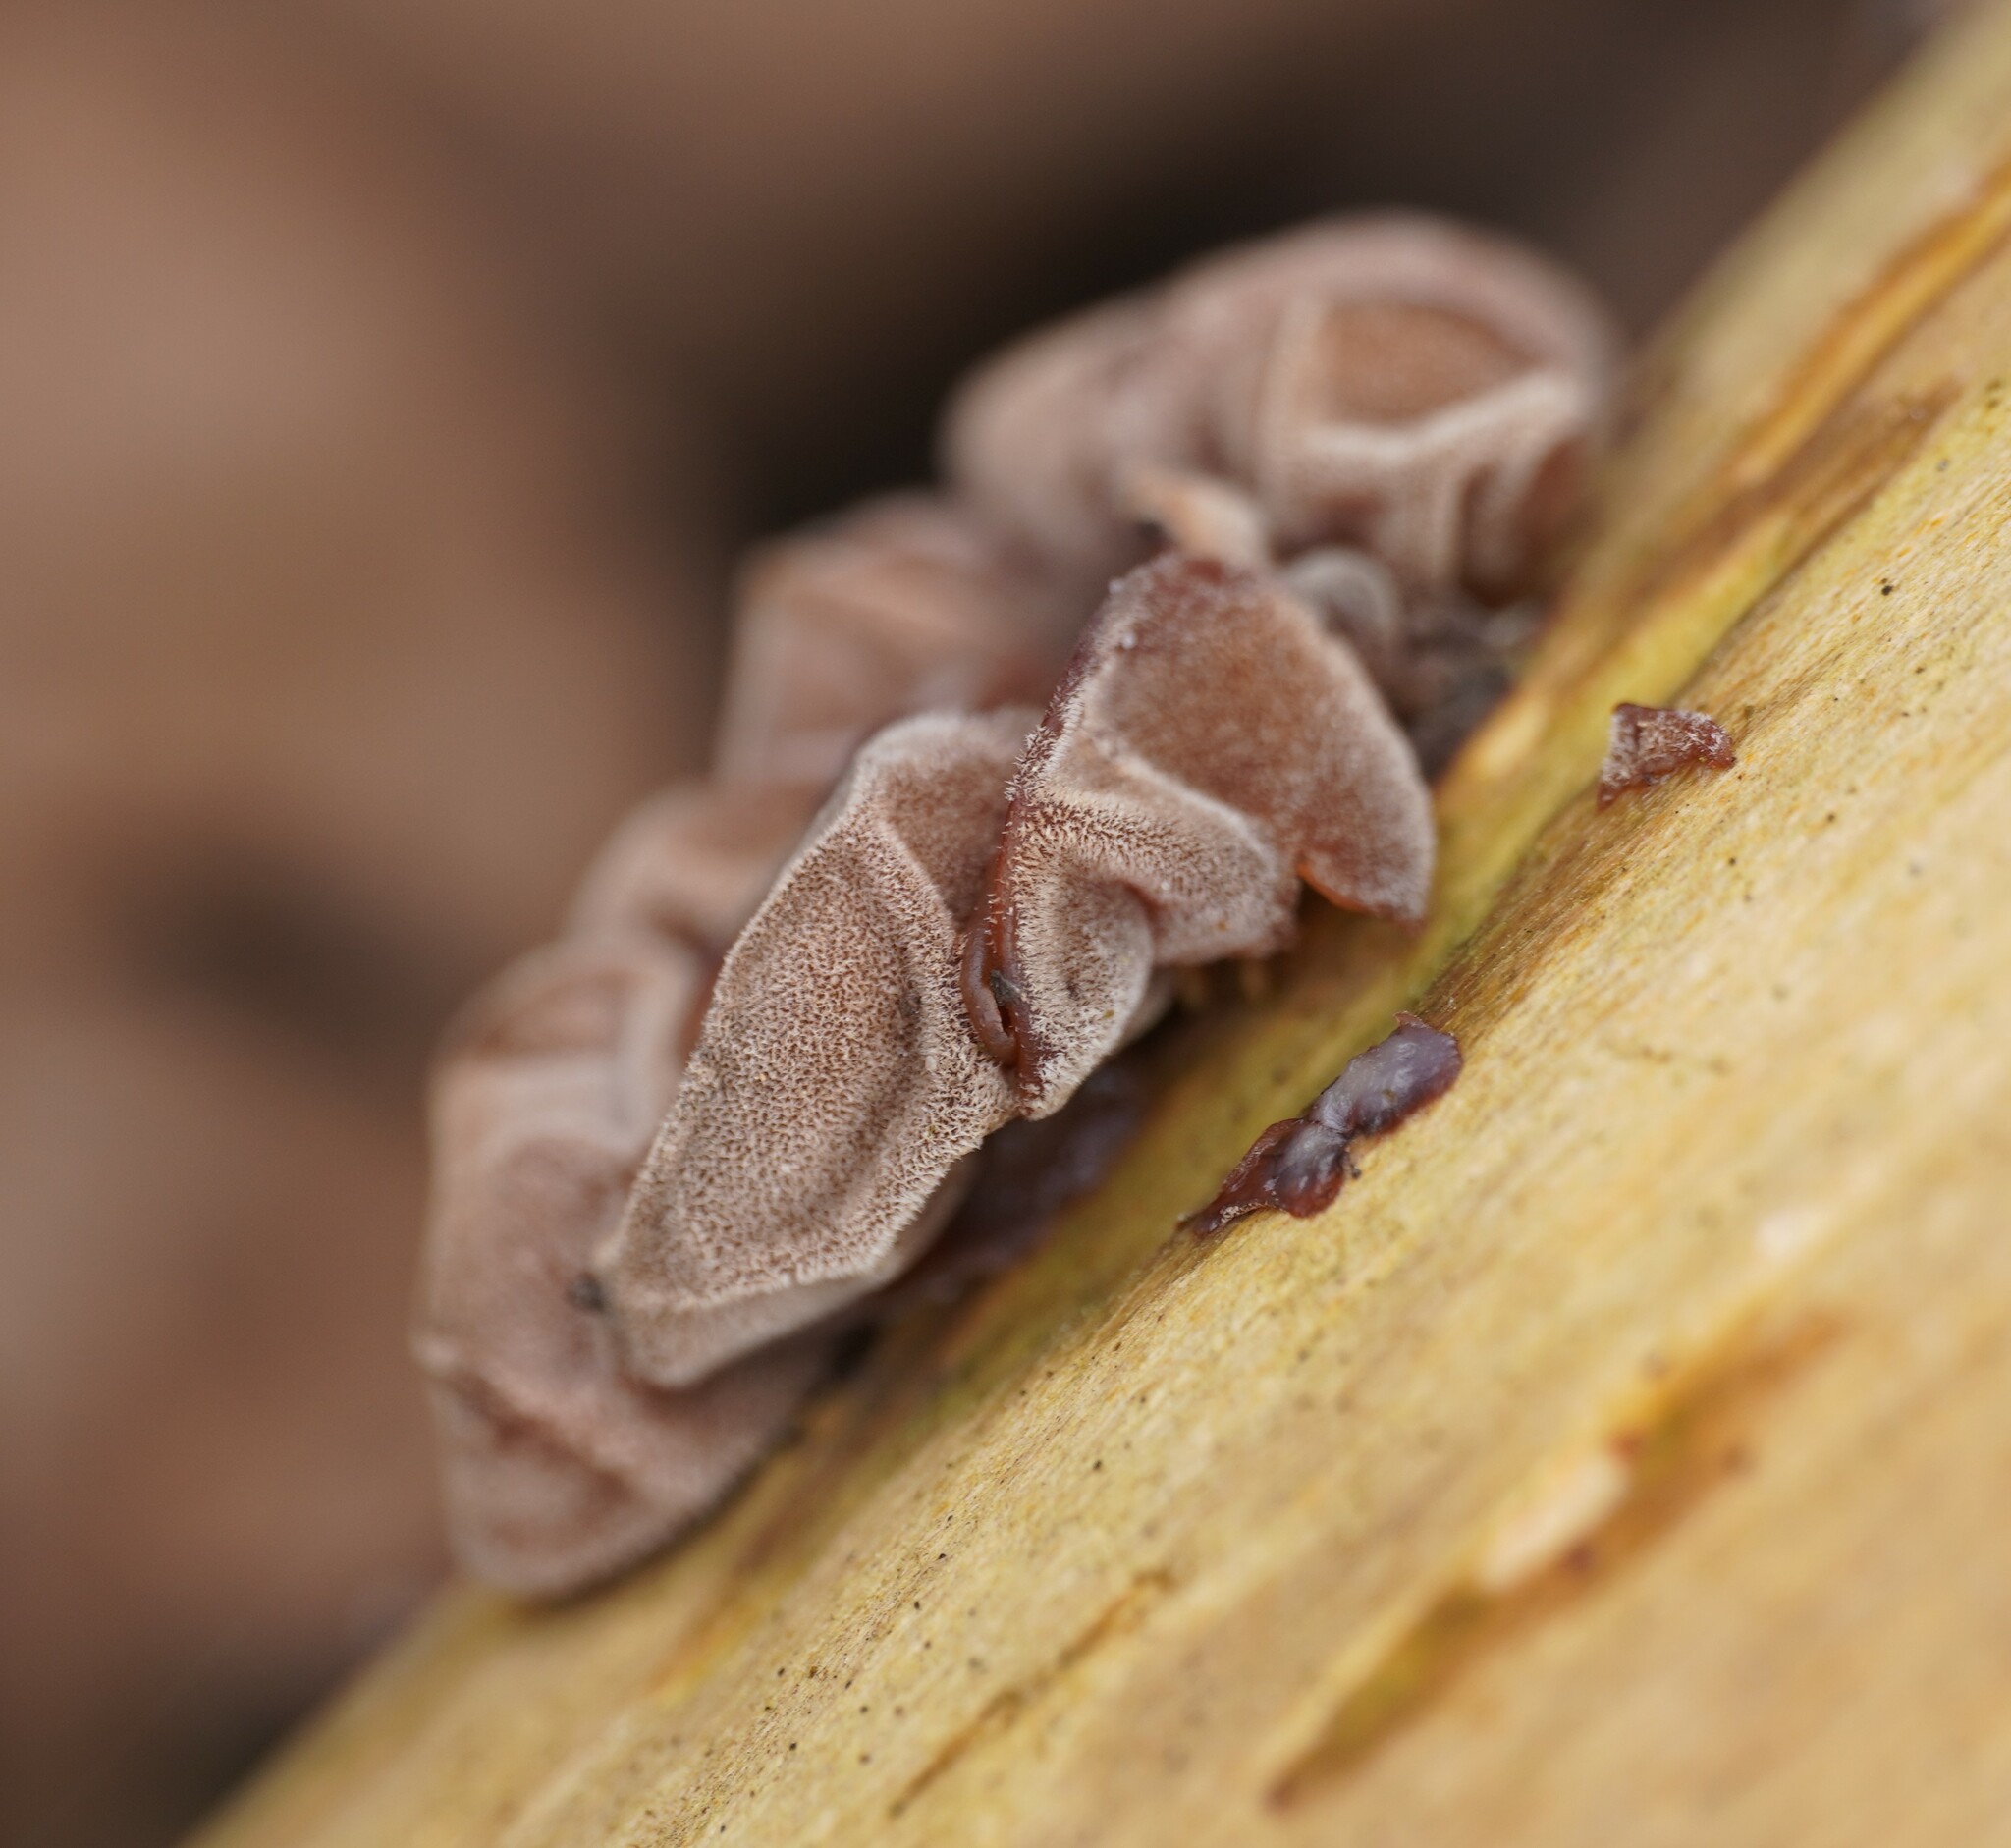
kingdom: Fungi
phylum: Basidiomycota
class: Agaricomycetes
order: Auriculariales
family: Auriculariaceae
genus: Auricularia
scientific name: Auricularia auricula-judae
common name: Jelly ear
